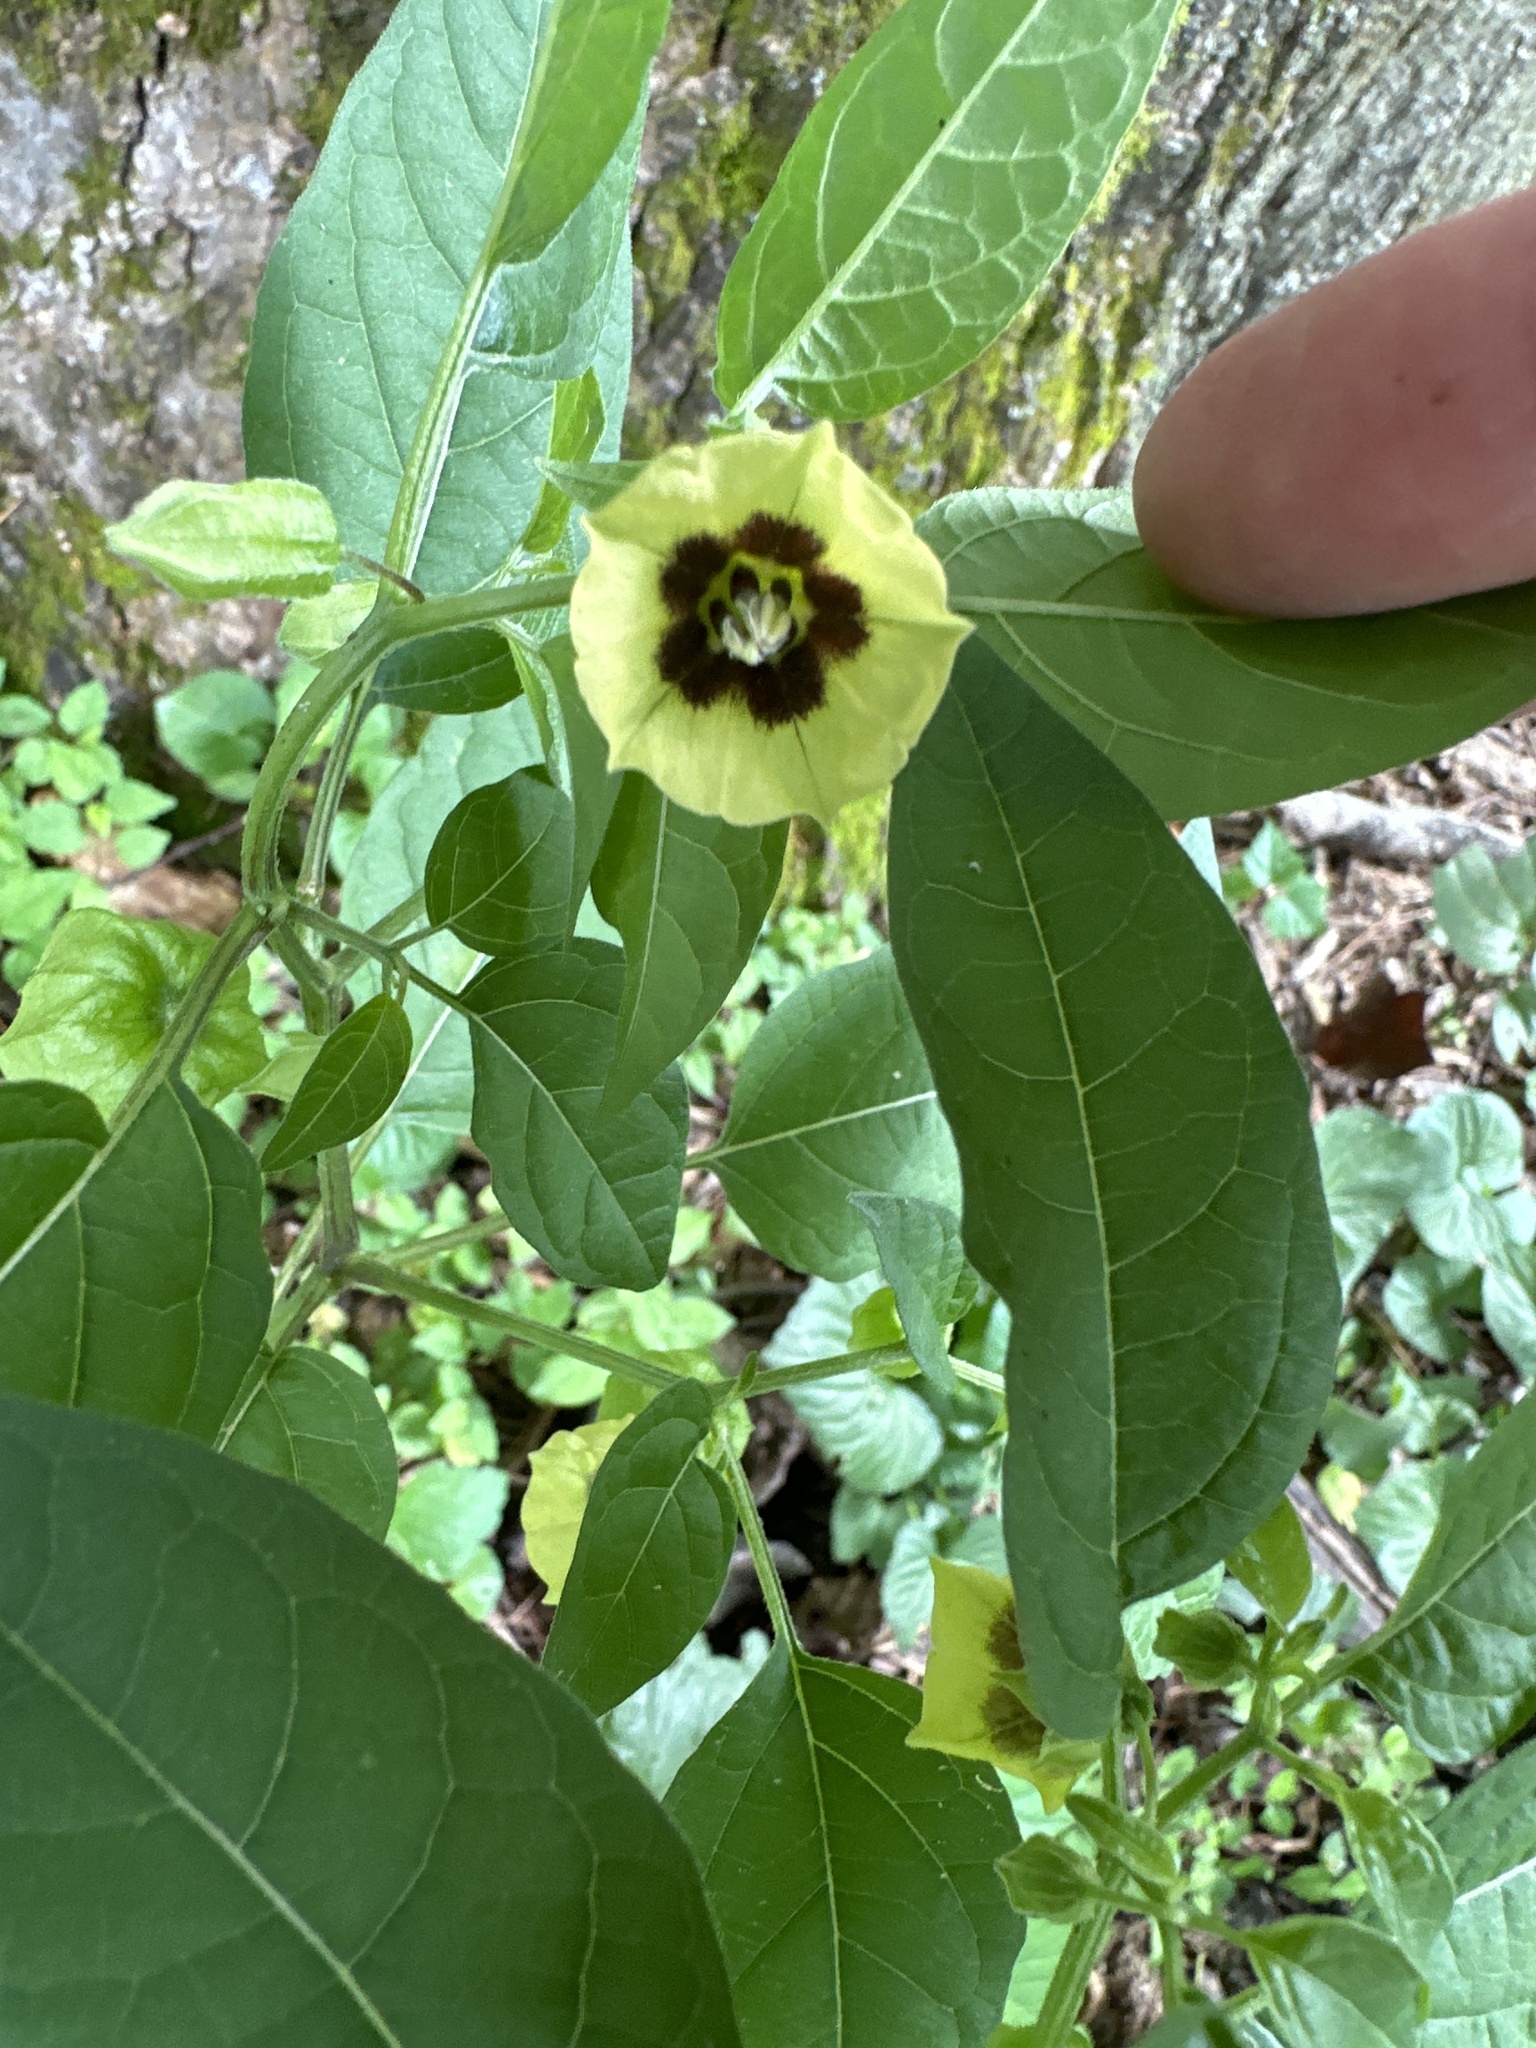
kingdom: Plantae
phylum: Tracheophyta
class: Magnoliopsida
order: Solanales
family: Solanaceae
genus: Physalis
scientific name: Physalis longifolia
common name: Common ground-cherry
